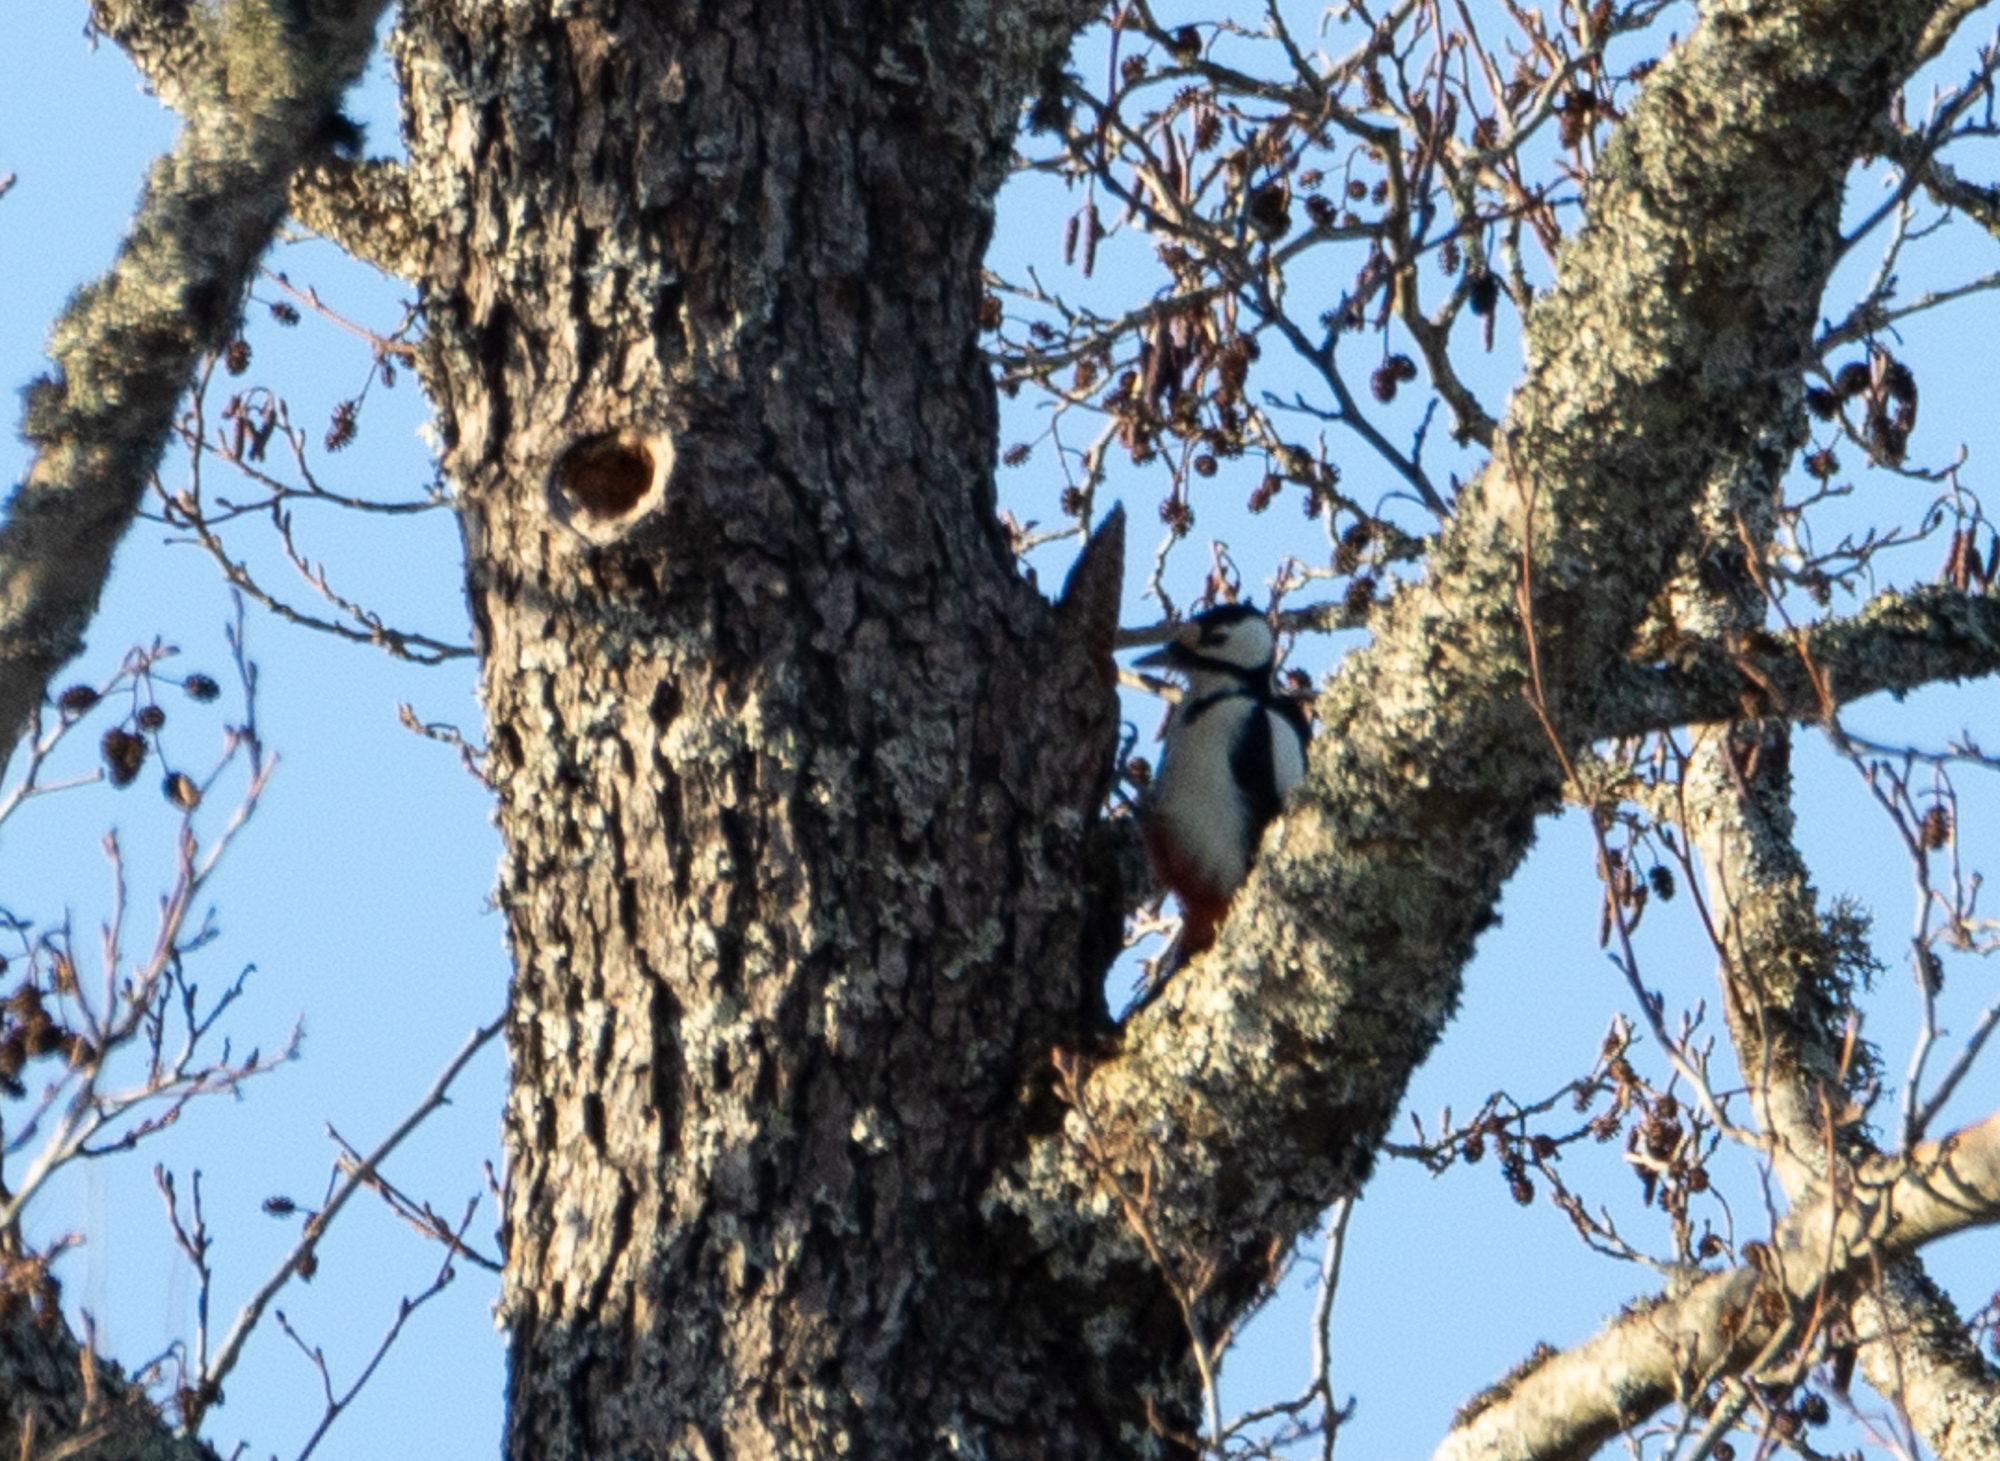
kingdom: Animalia
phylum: Chordata
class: Aves
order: Piciformes
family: Picidae
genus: Dendrocopos
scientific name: Dendrocopos major
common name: Great spotted woodpecker
